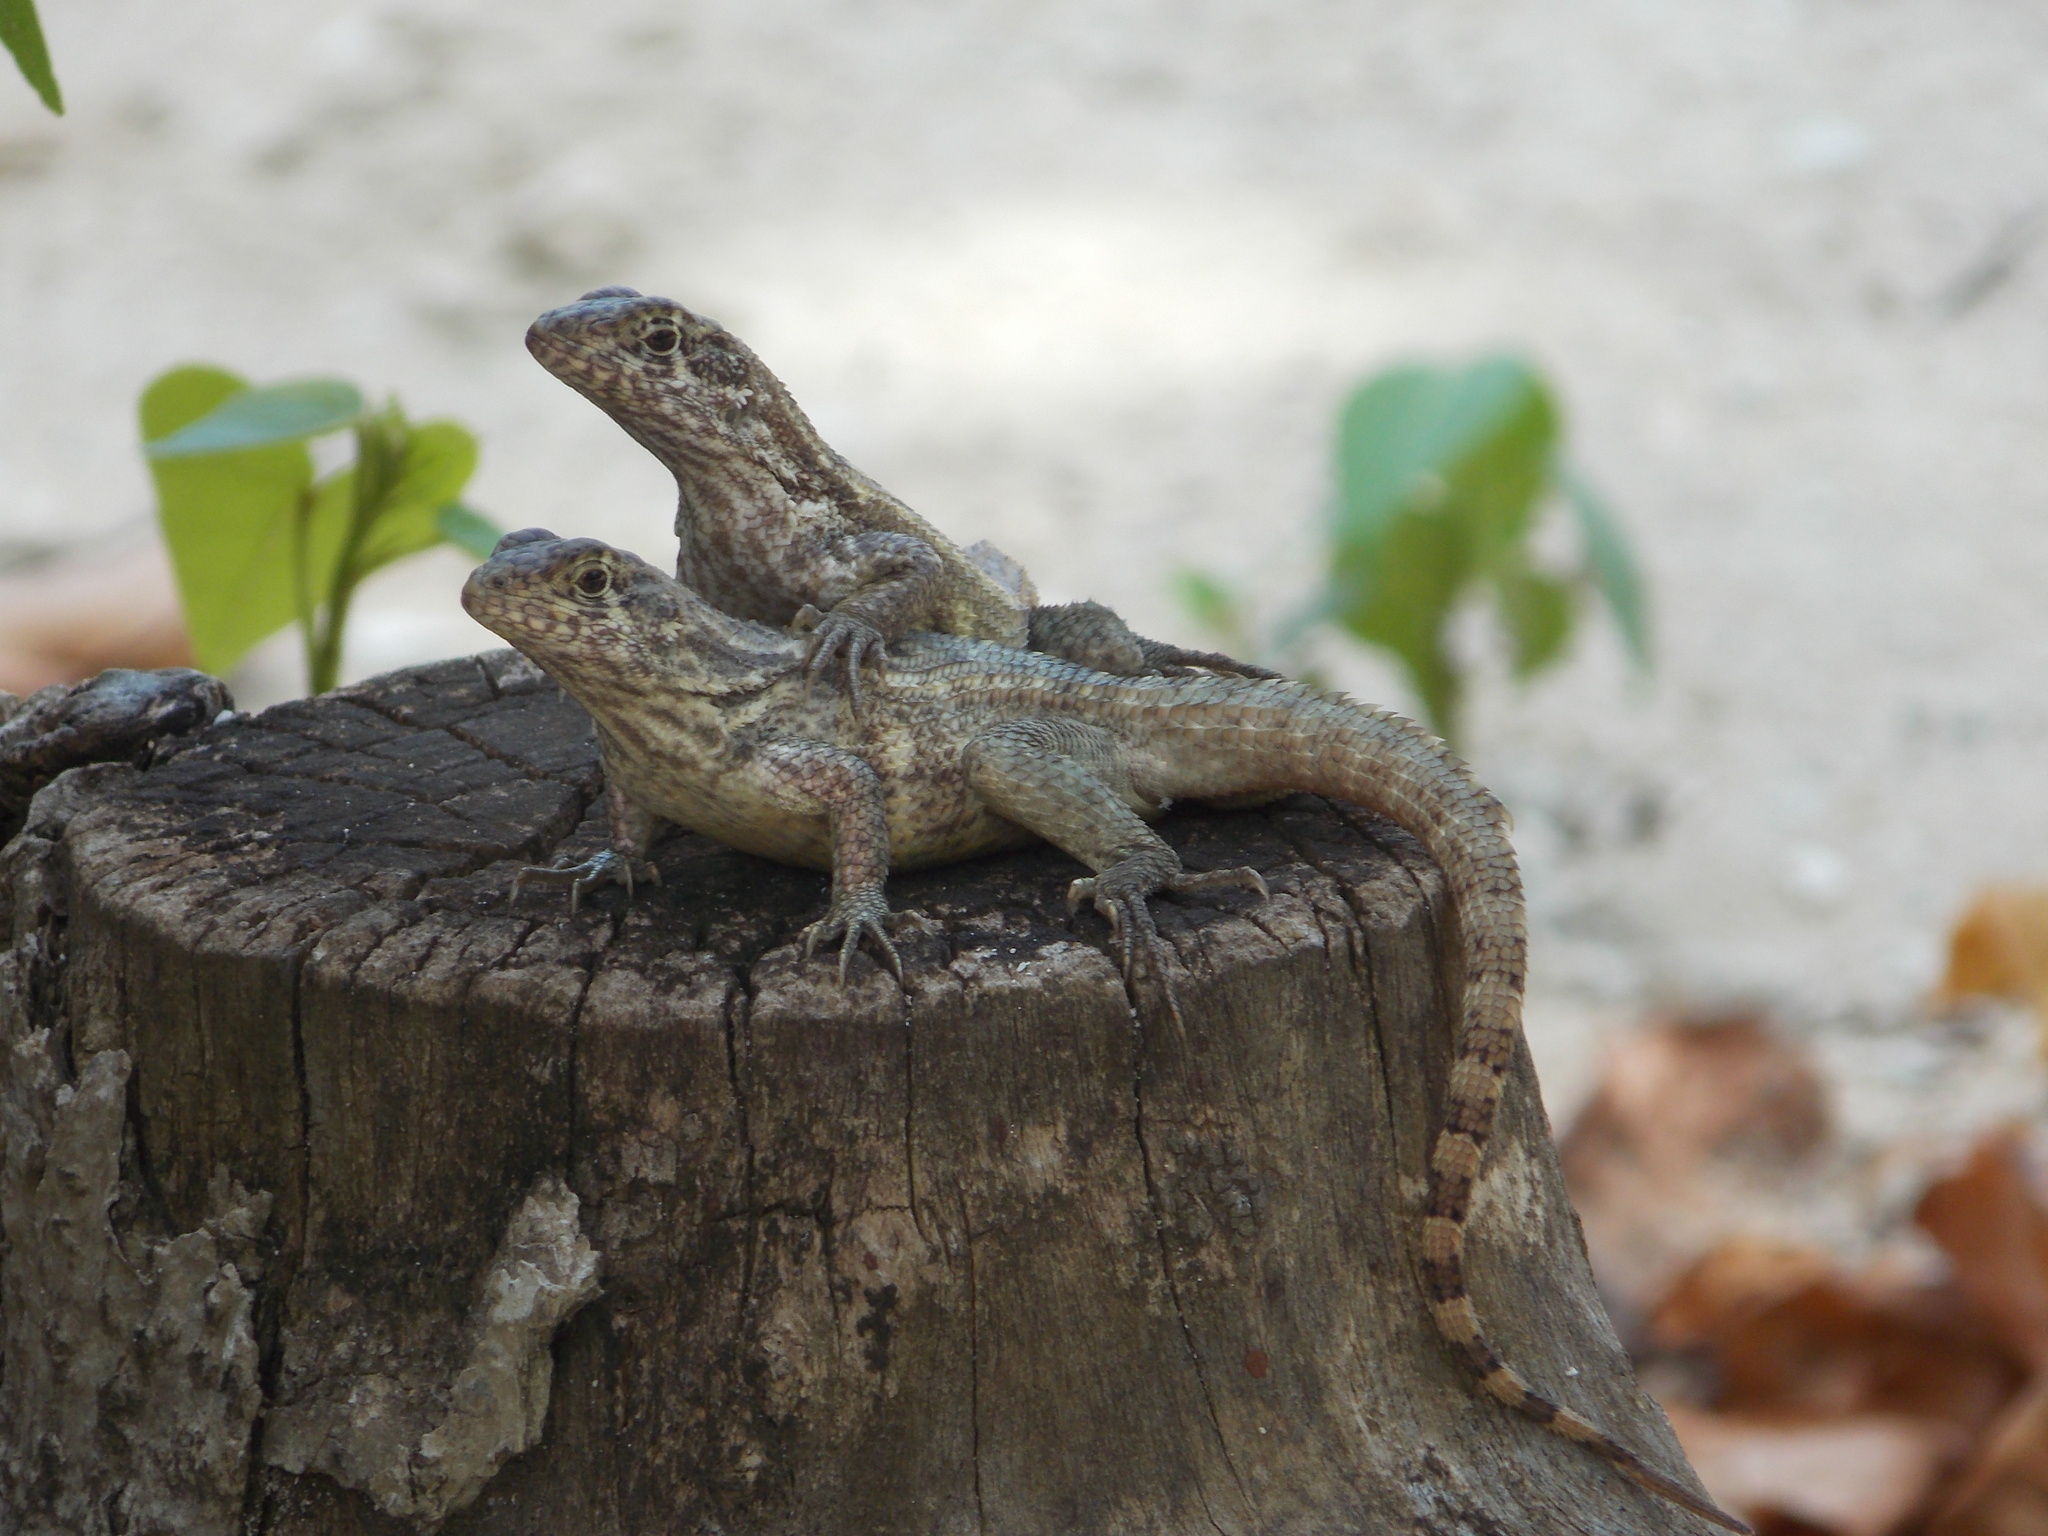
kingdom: Animalia
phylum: Chordata
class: Squamata
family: Leiocephalidae
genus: Leiocephalus
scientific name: Leiocephalus varius
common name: Cayman curlytail
